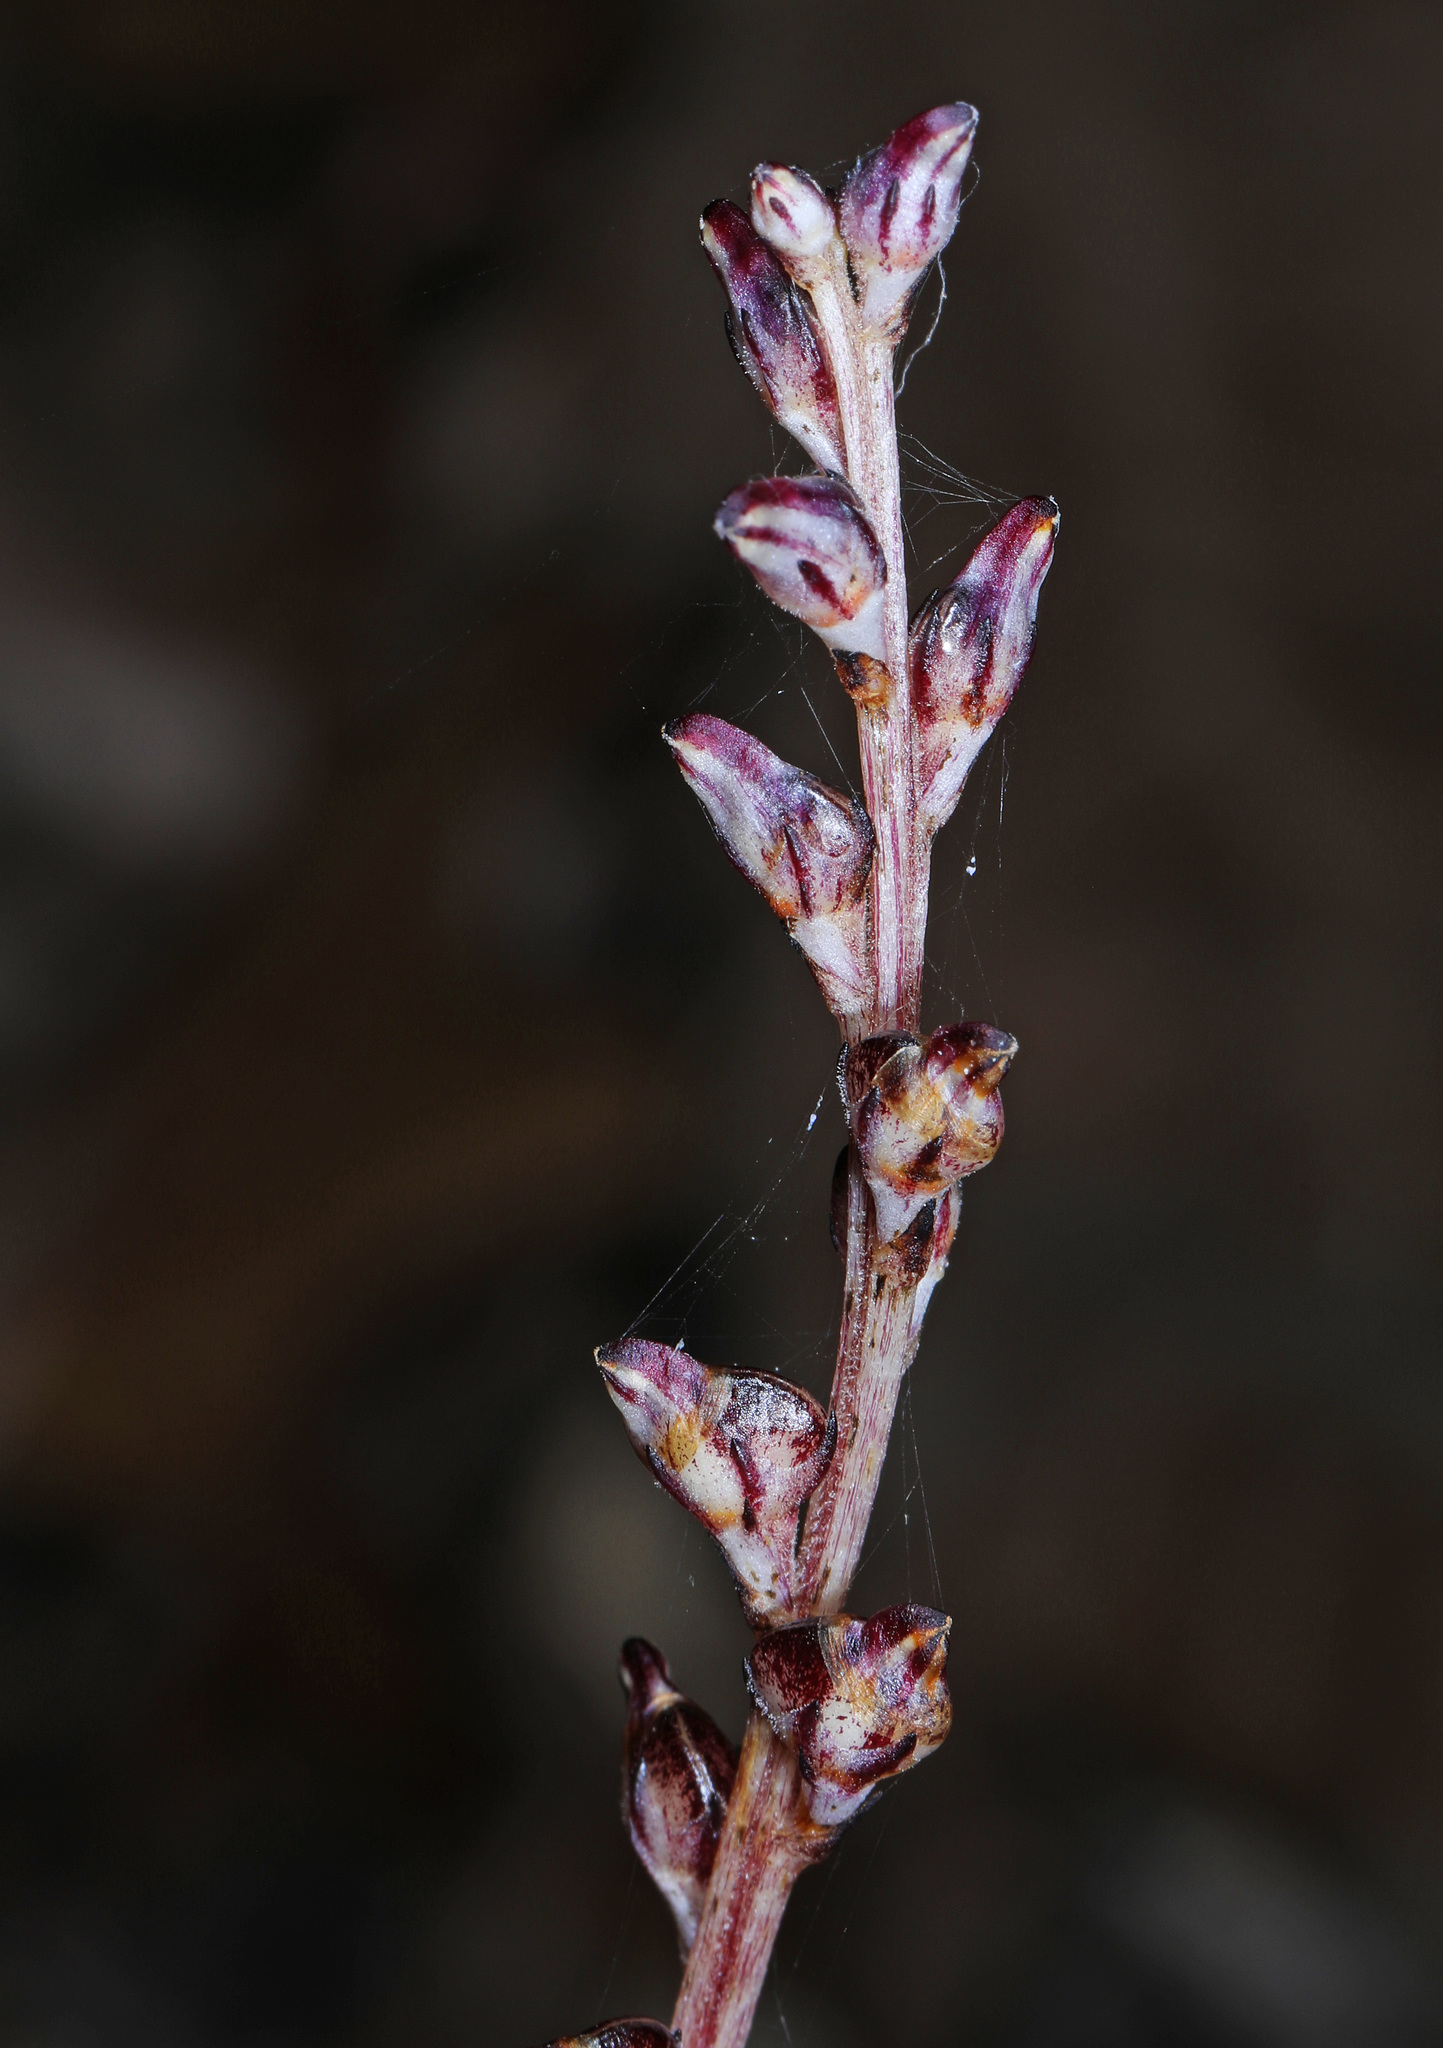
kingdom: Plantae
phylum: Tracheophyta
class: Magnoliopsida
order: Lamiales
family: Orobanchaceae
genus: Epifagus
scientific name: Epifagus virginiana
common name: Beechdrops
